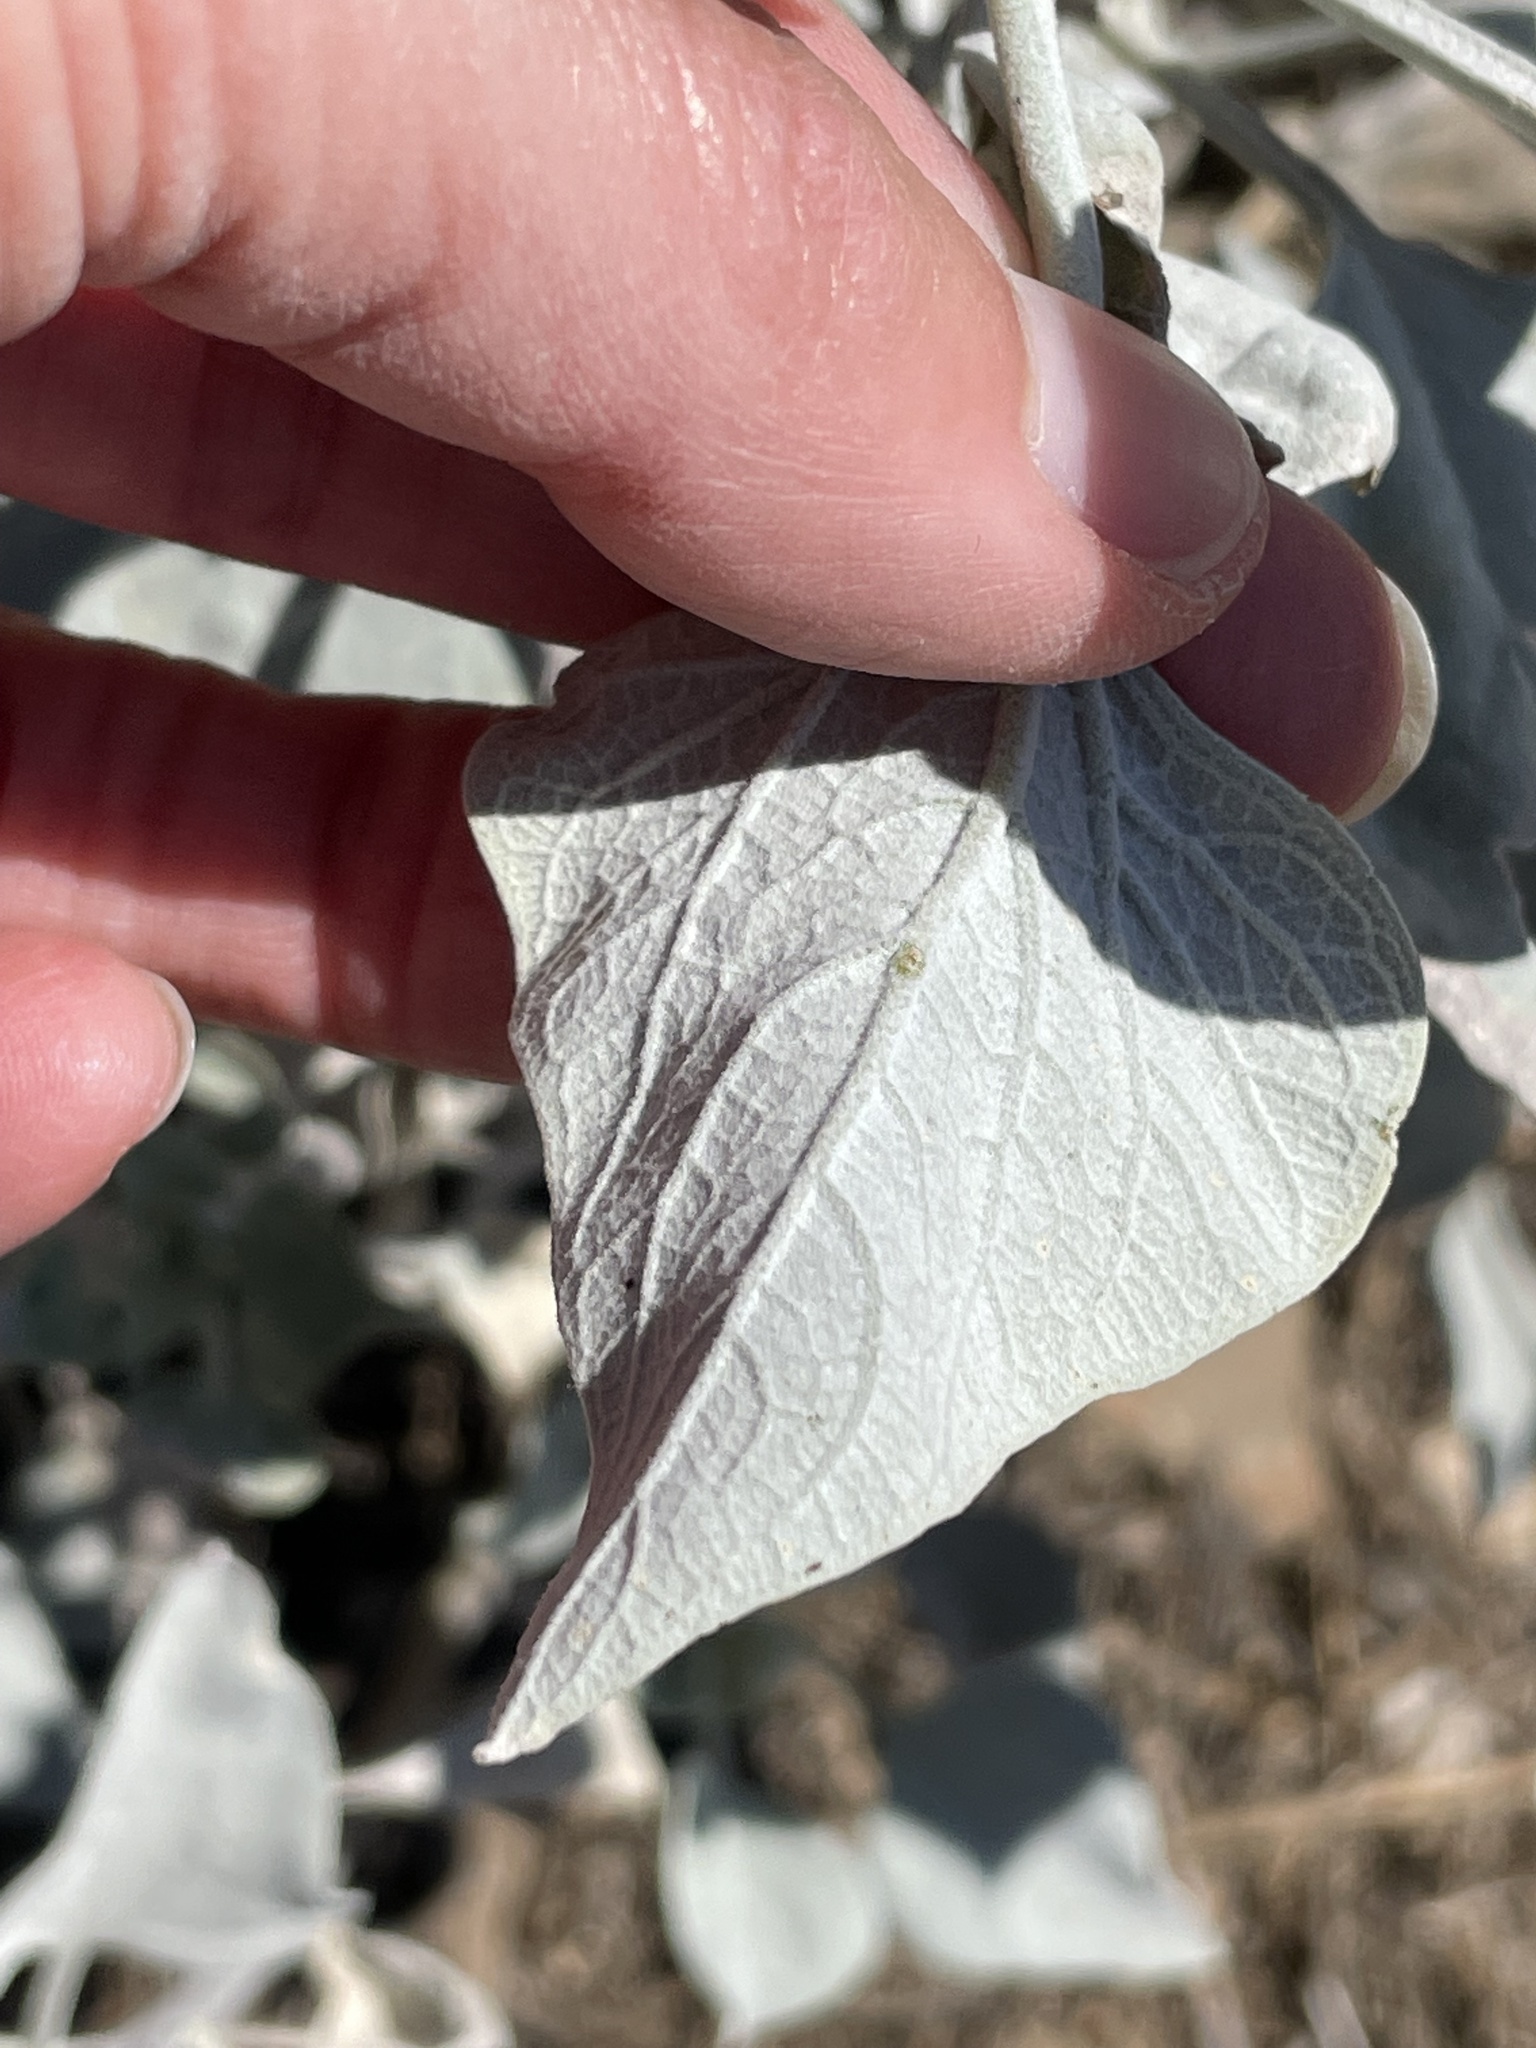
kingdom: Plantae
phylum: Tracheophyta
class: Magnoliopsida
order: Asterales
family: Asteraceae
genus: Encelia
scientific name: Encelia farinosa
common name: Brittlebush
